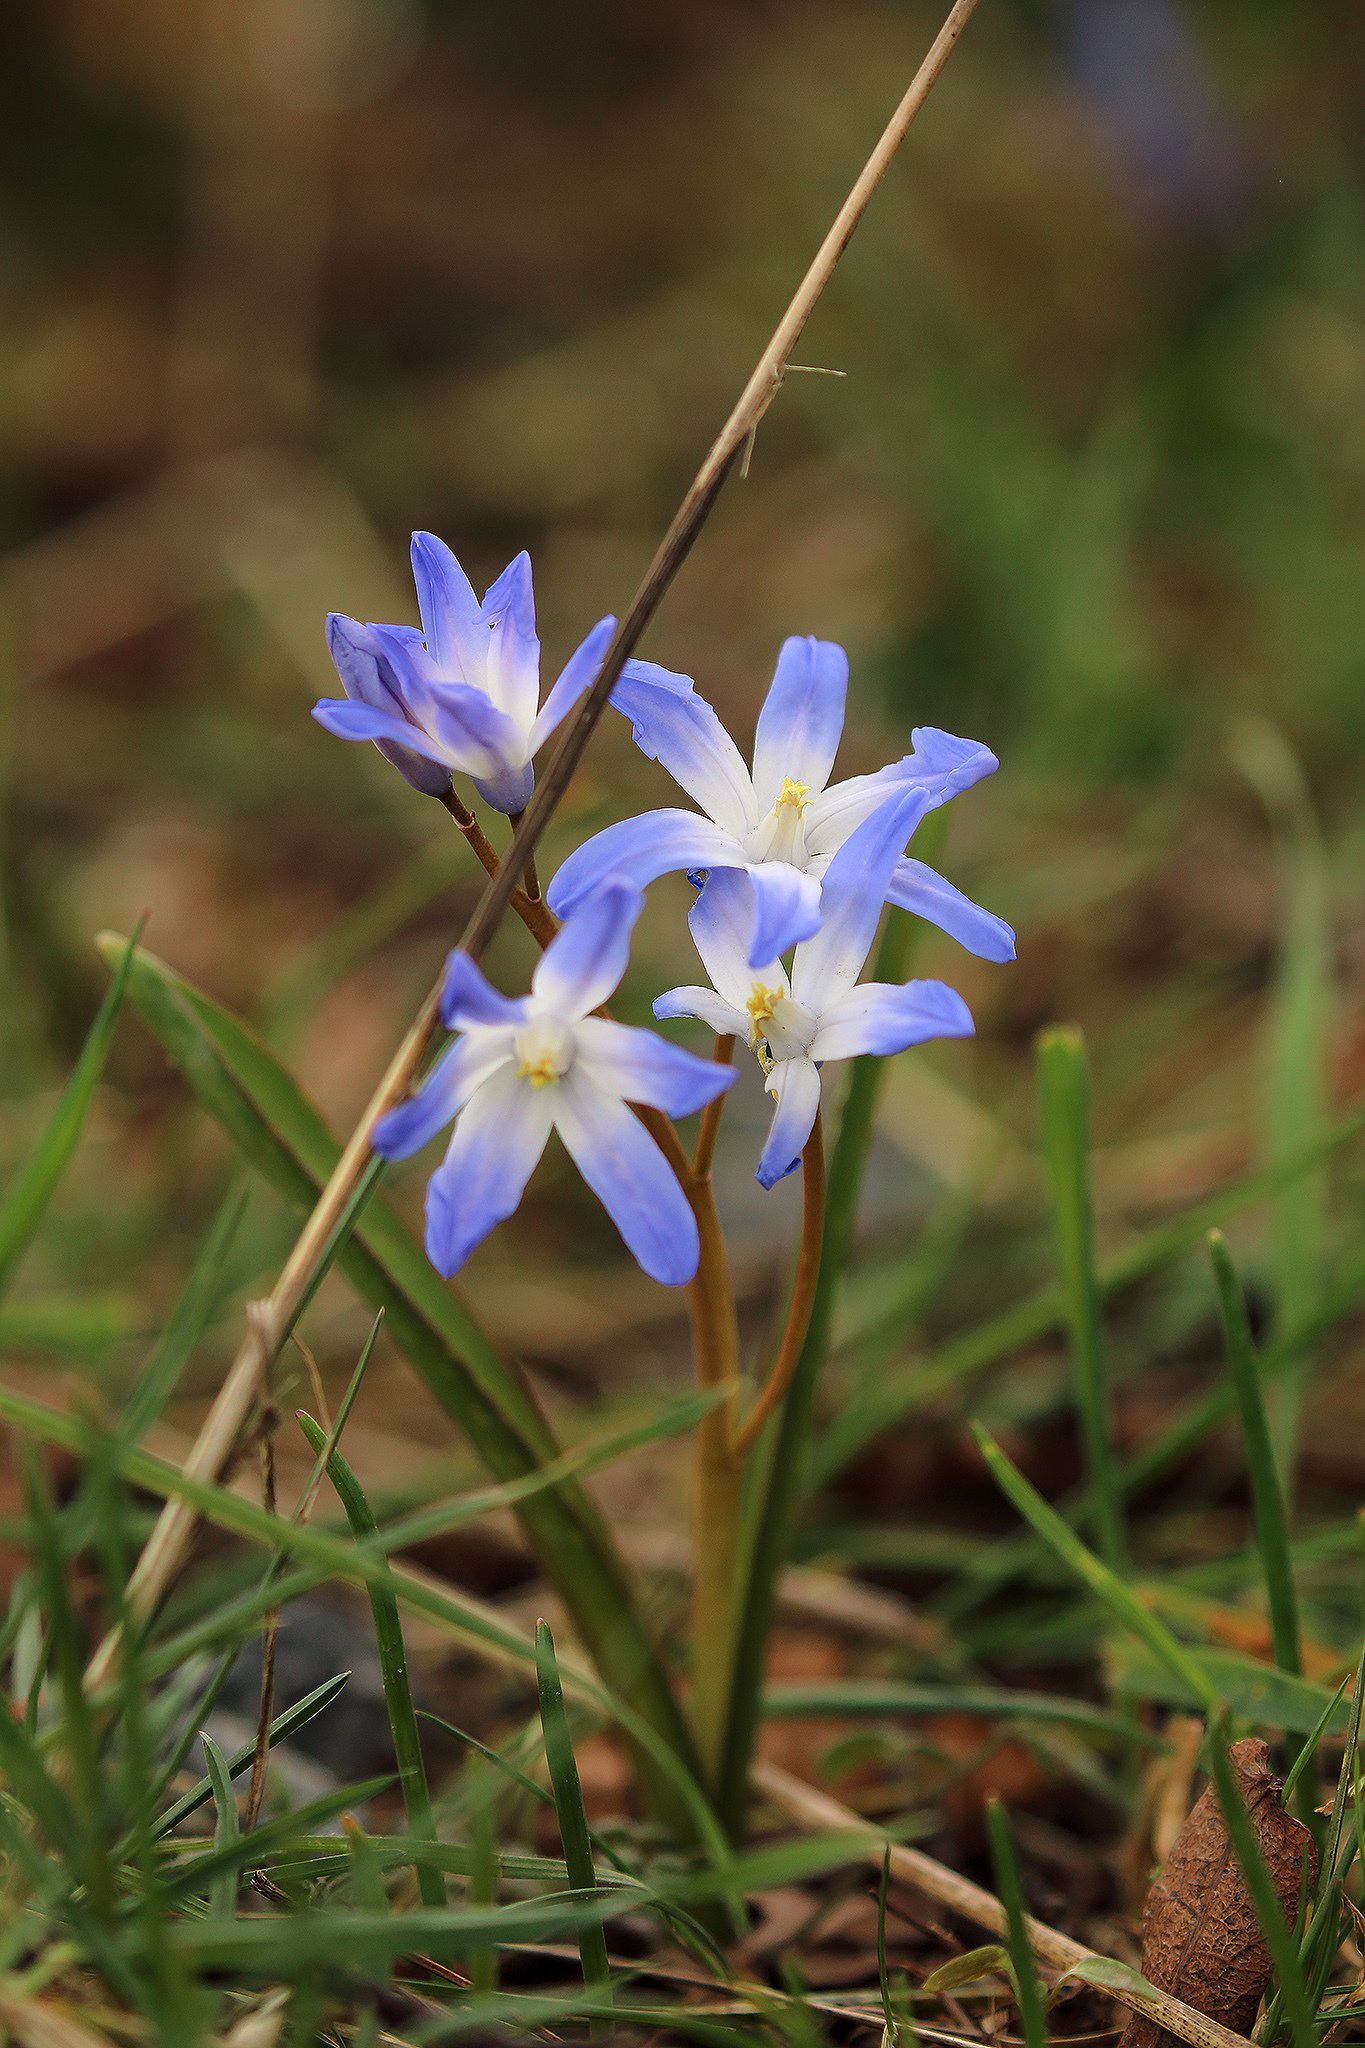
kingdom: Plantae
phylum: Tracheophyta
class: Liliopsida
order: Asparagales
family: Asparagaceae
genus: Scilla
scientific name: Scilla forbesii
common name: Glory-of-the-snow
